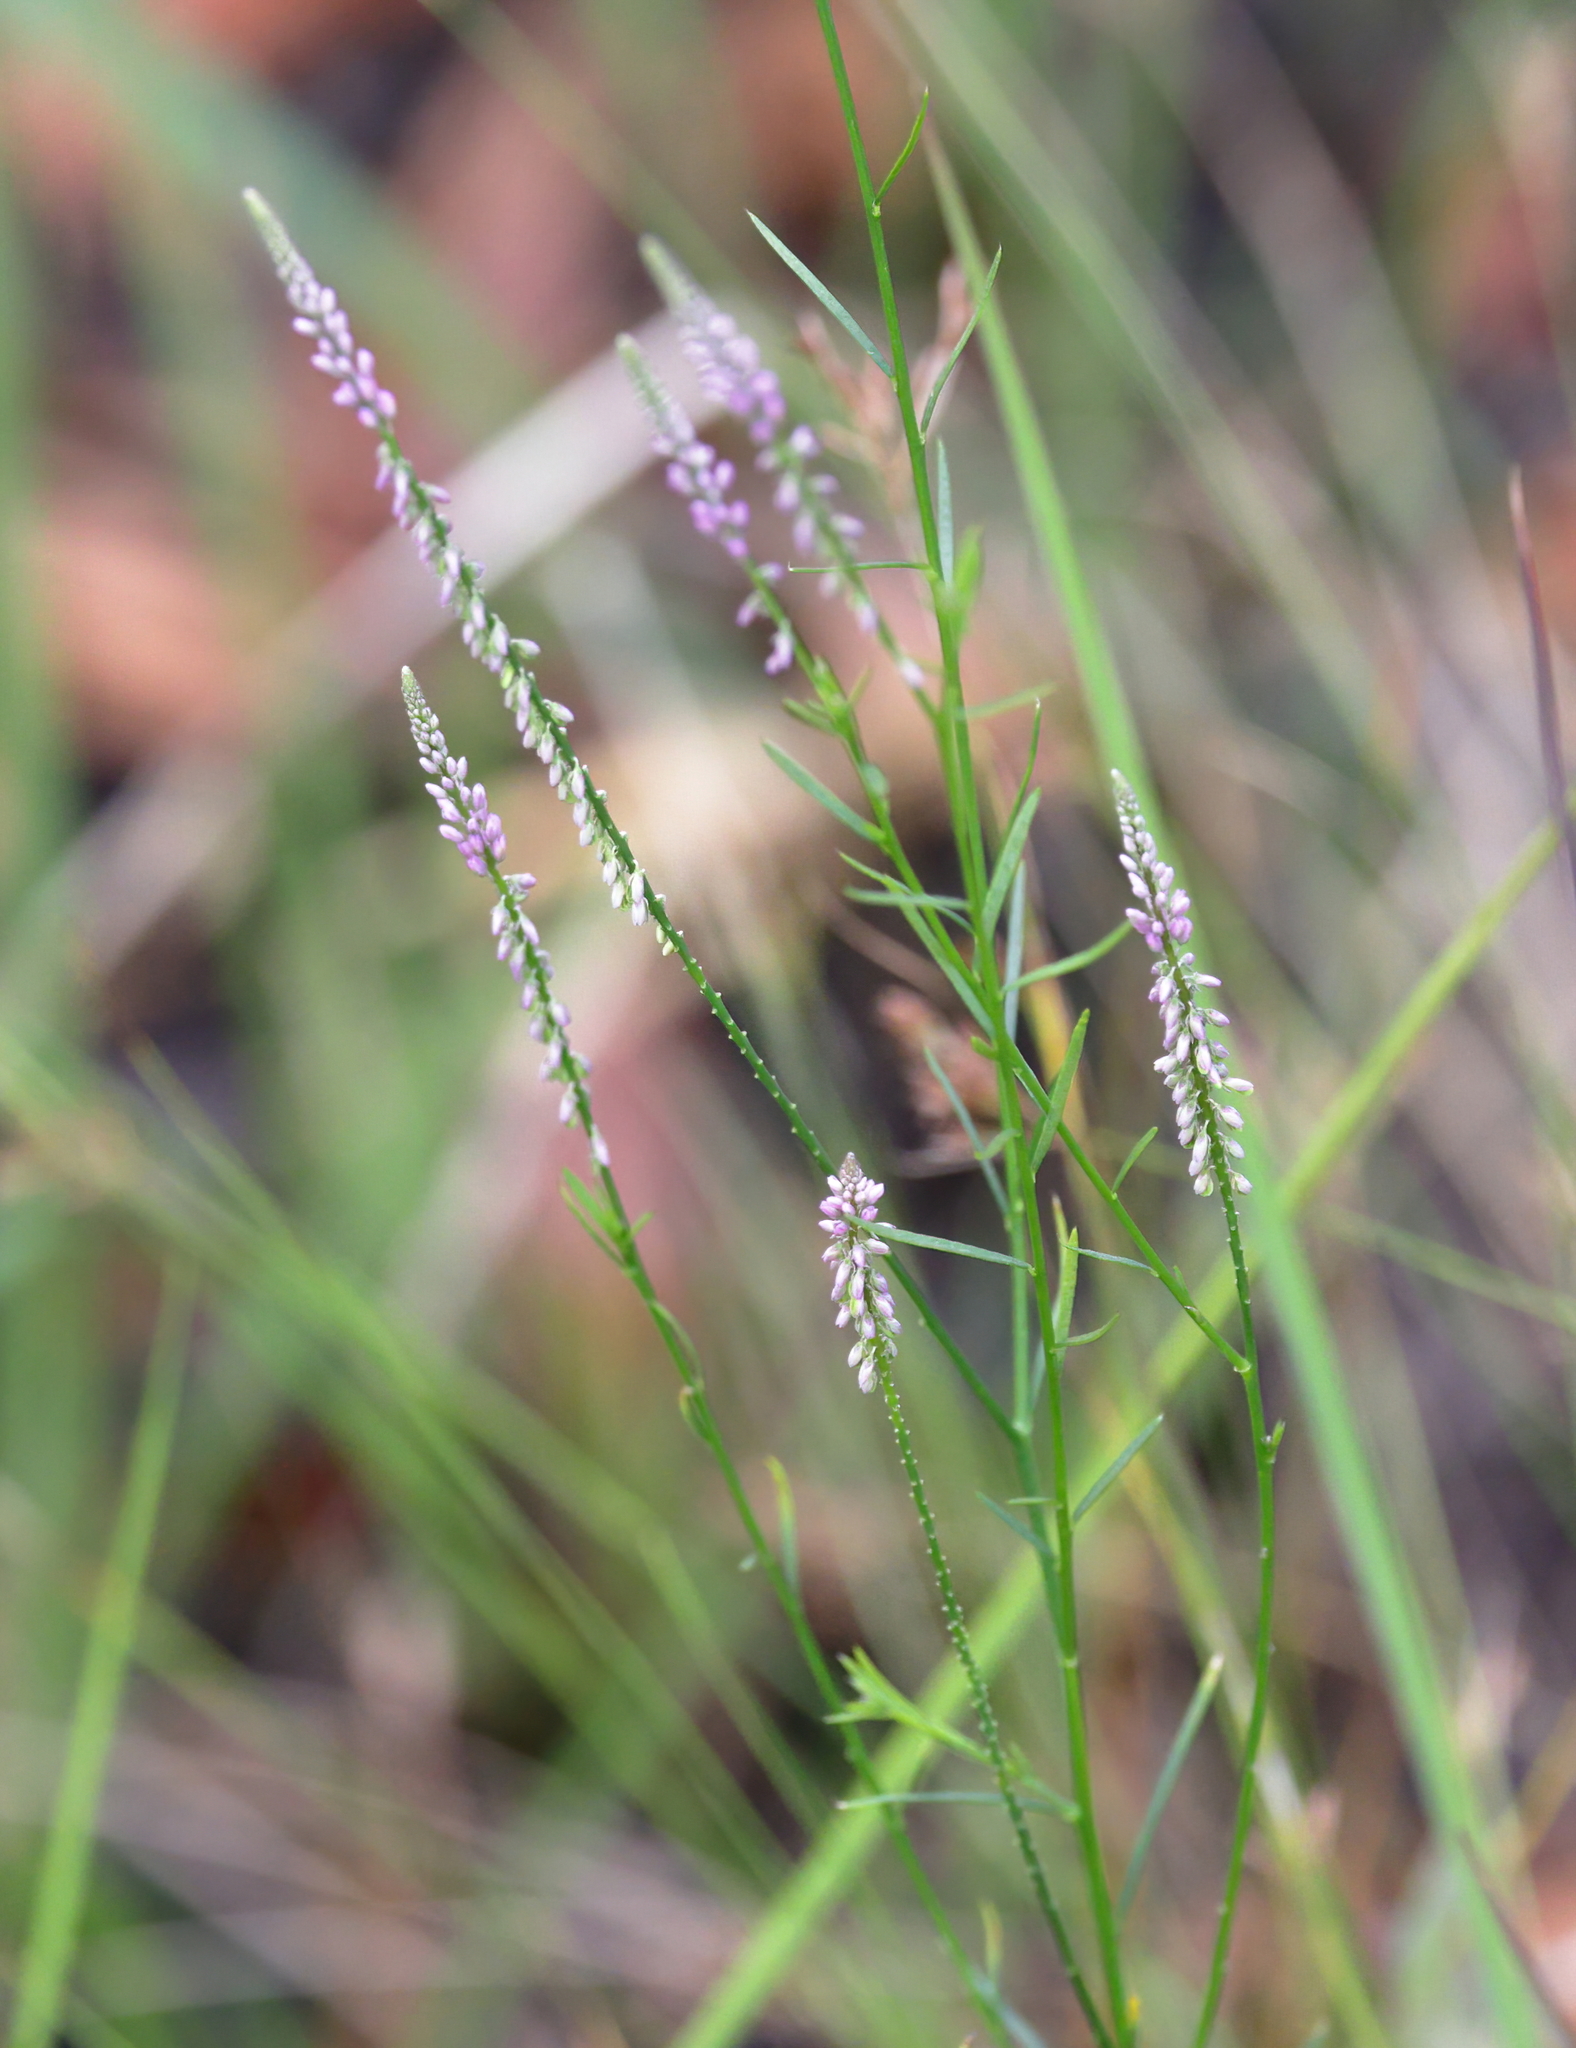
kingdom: Plantae
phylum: Tracheophyta
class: Magnoliopsida
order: Fabales
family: Polygalaceae
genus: Polygala
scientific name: Polygala tenella
